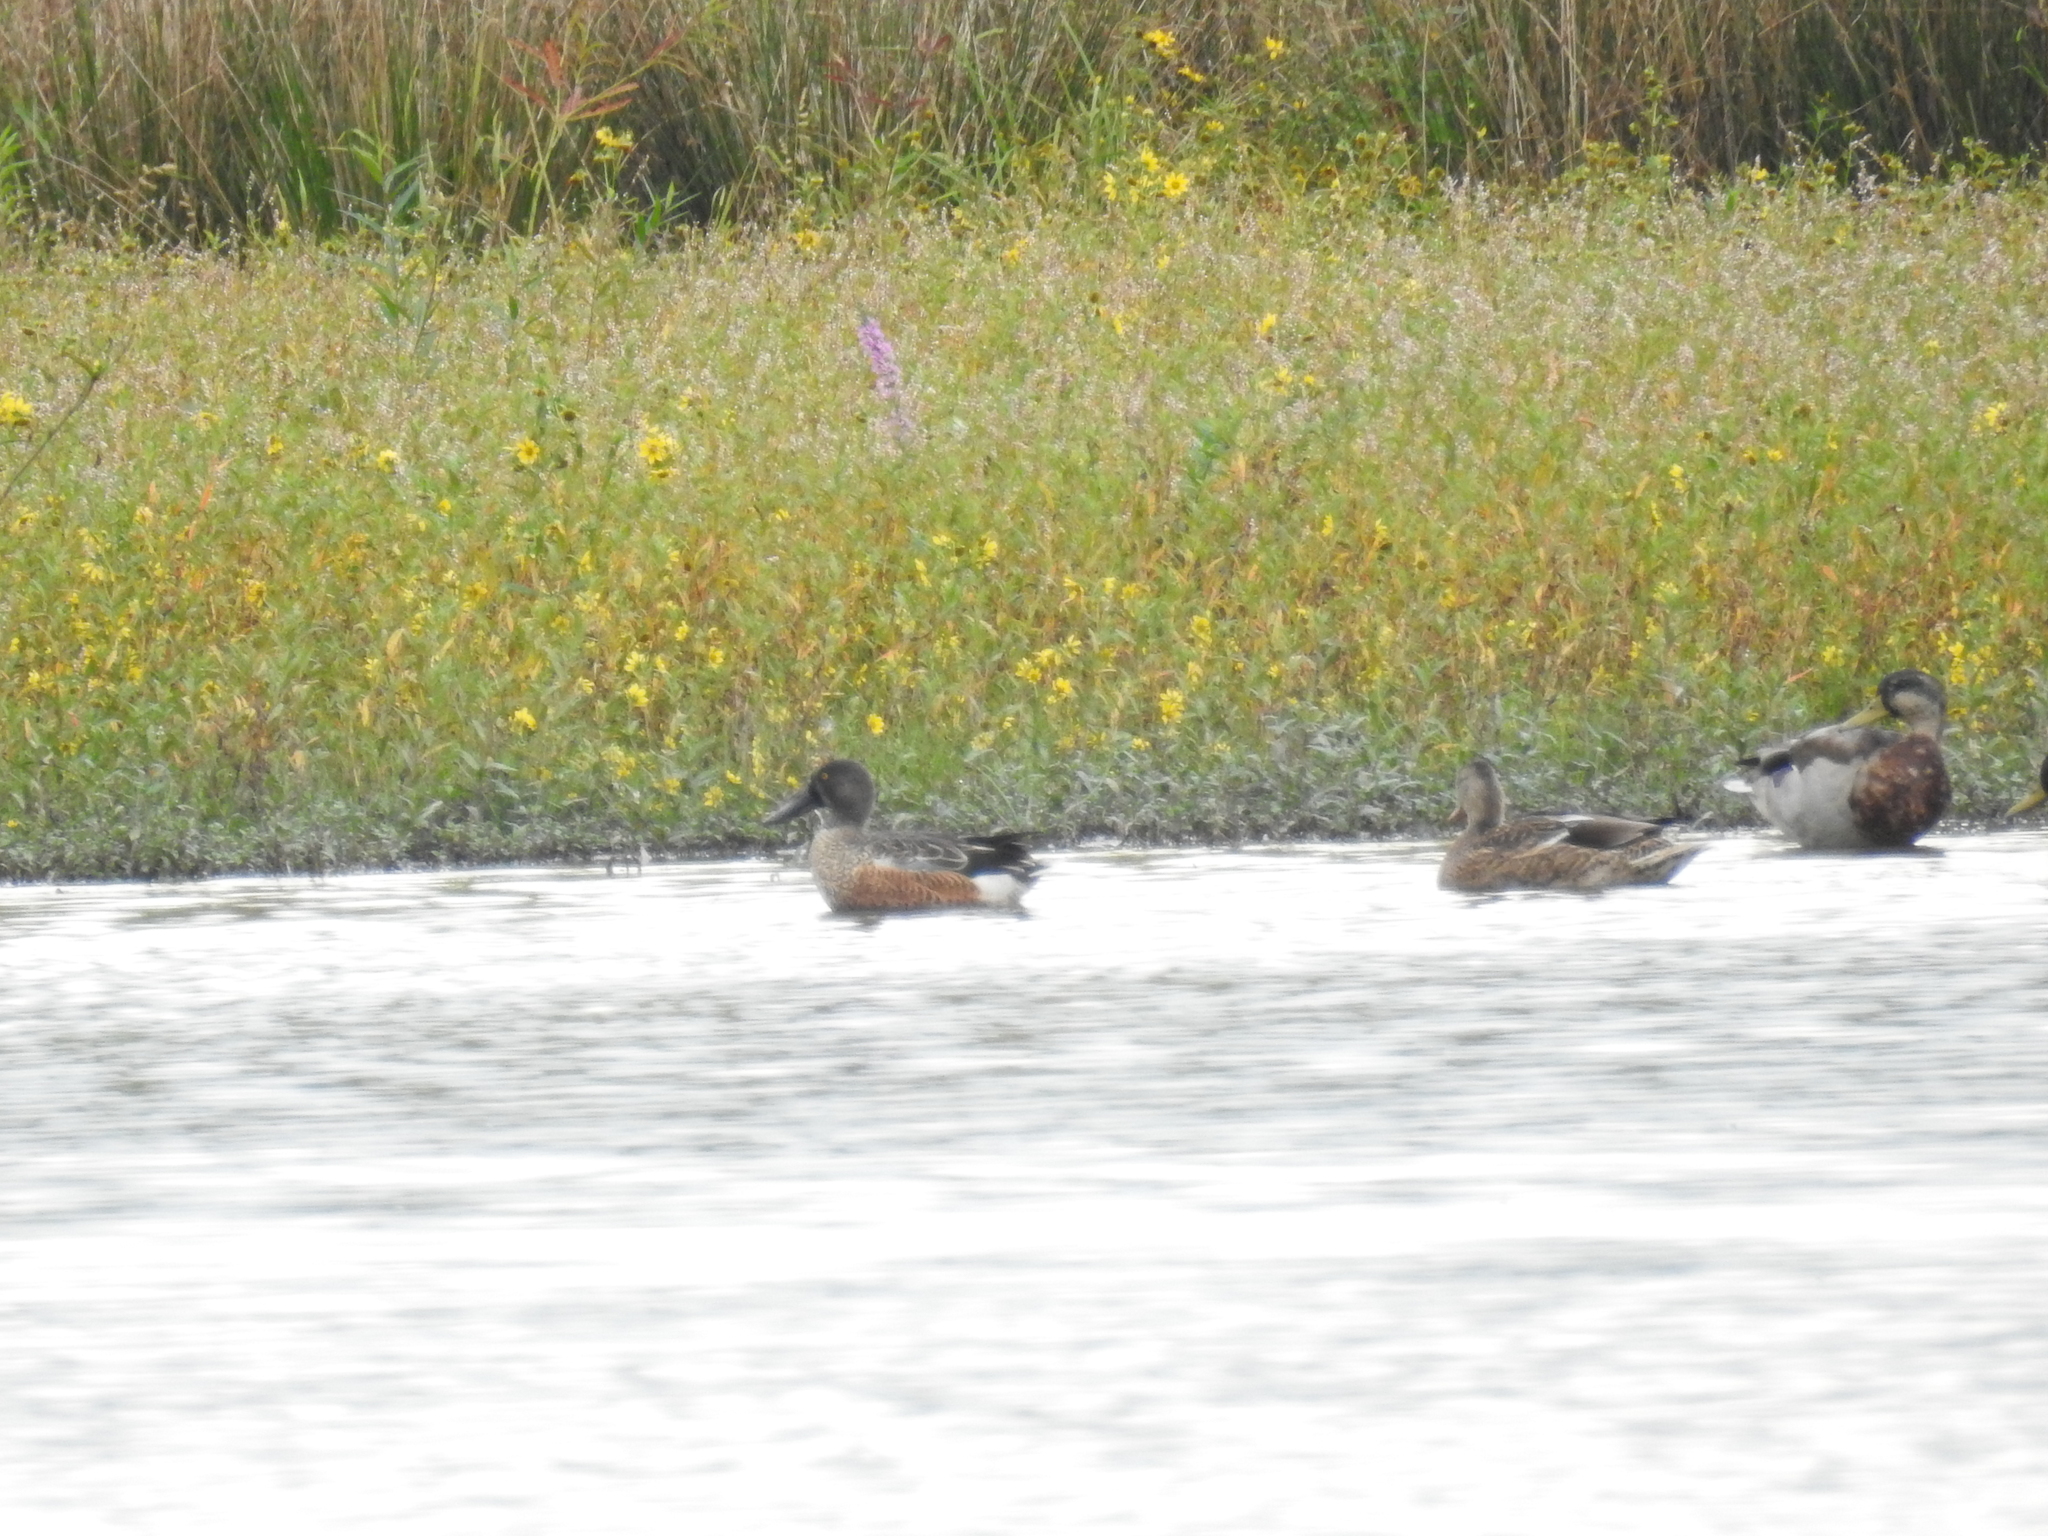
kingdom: Animalia
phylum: Chordata
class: Aves
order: Anseriformes
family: Anatidae
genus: Spatula
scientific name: Spatula clypeata
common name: Northern shoveler
